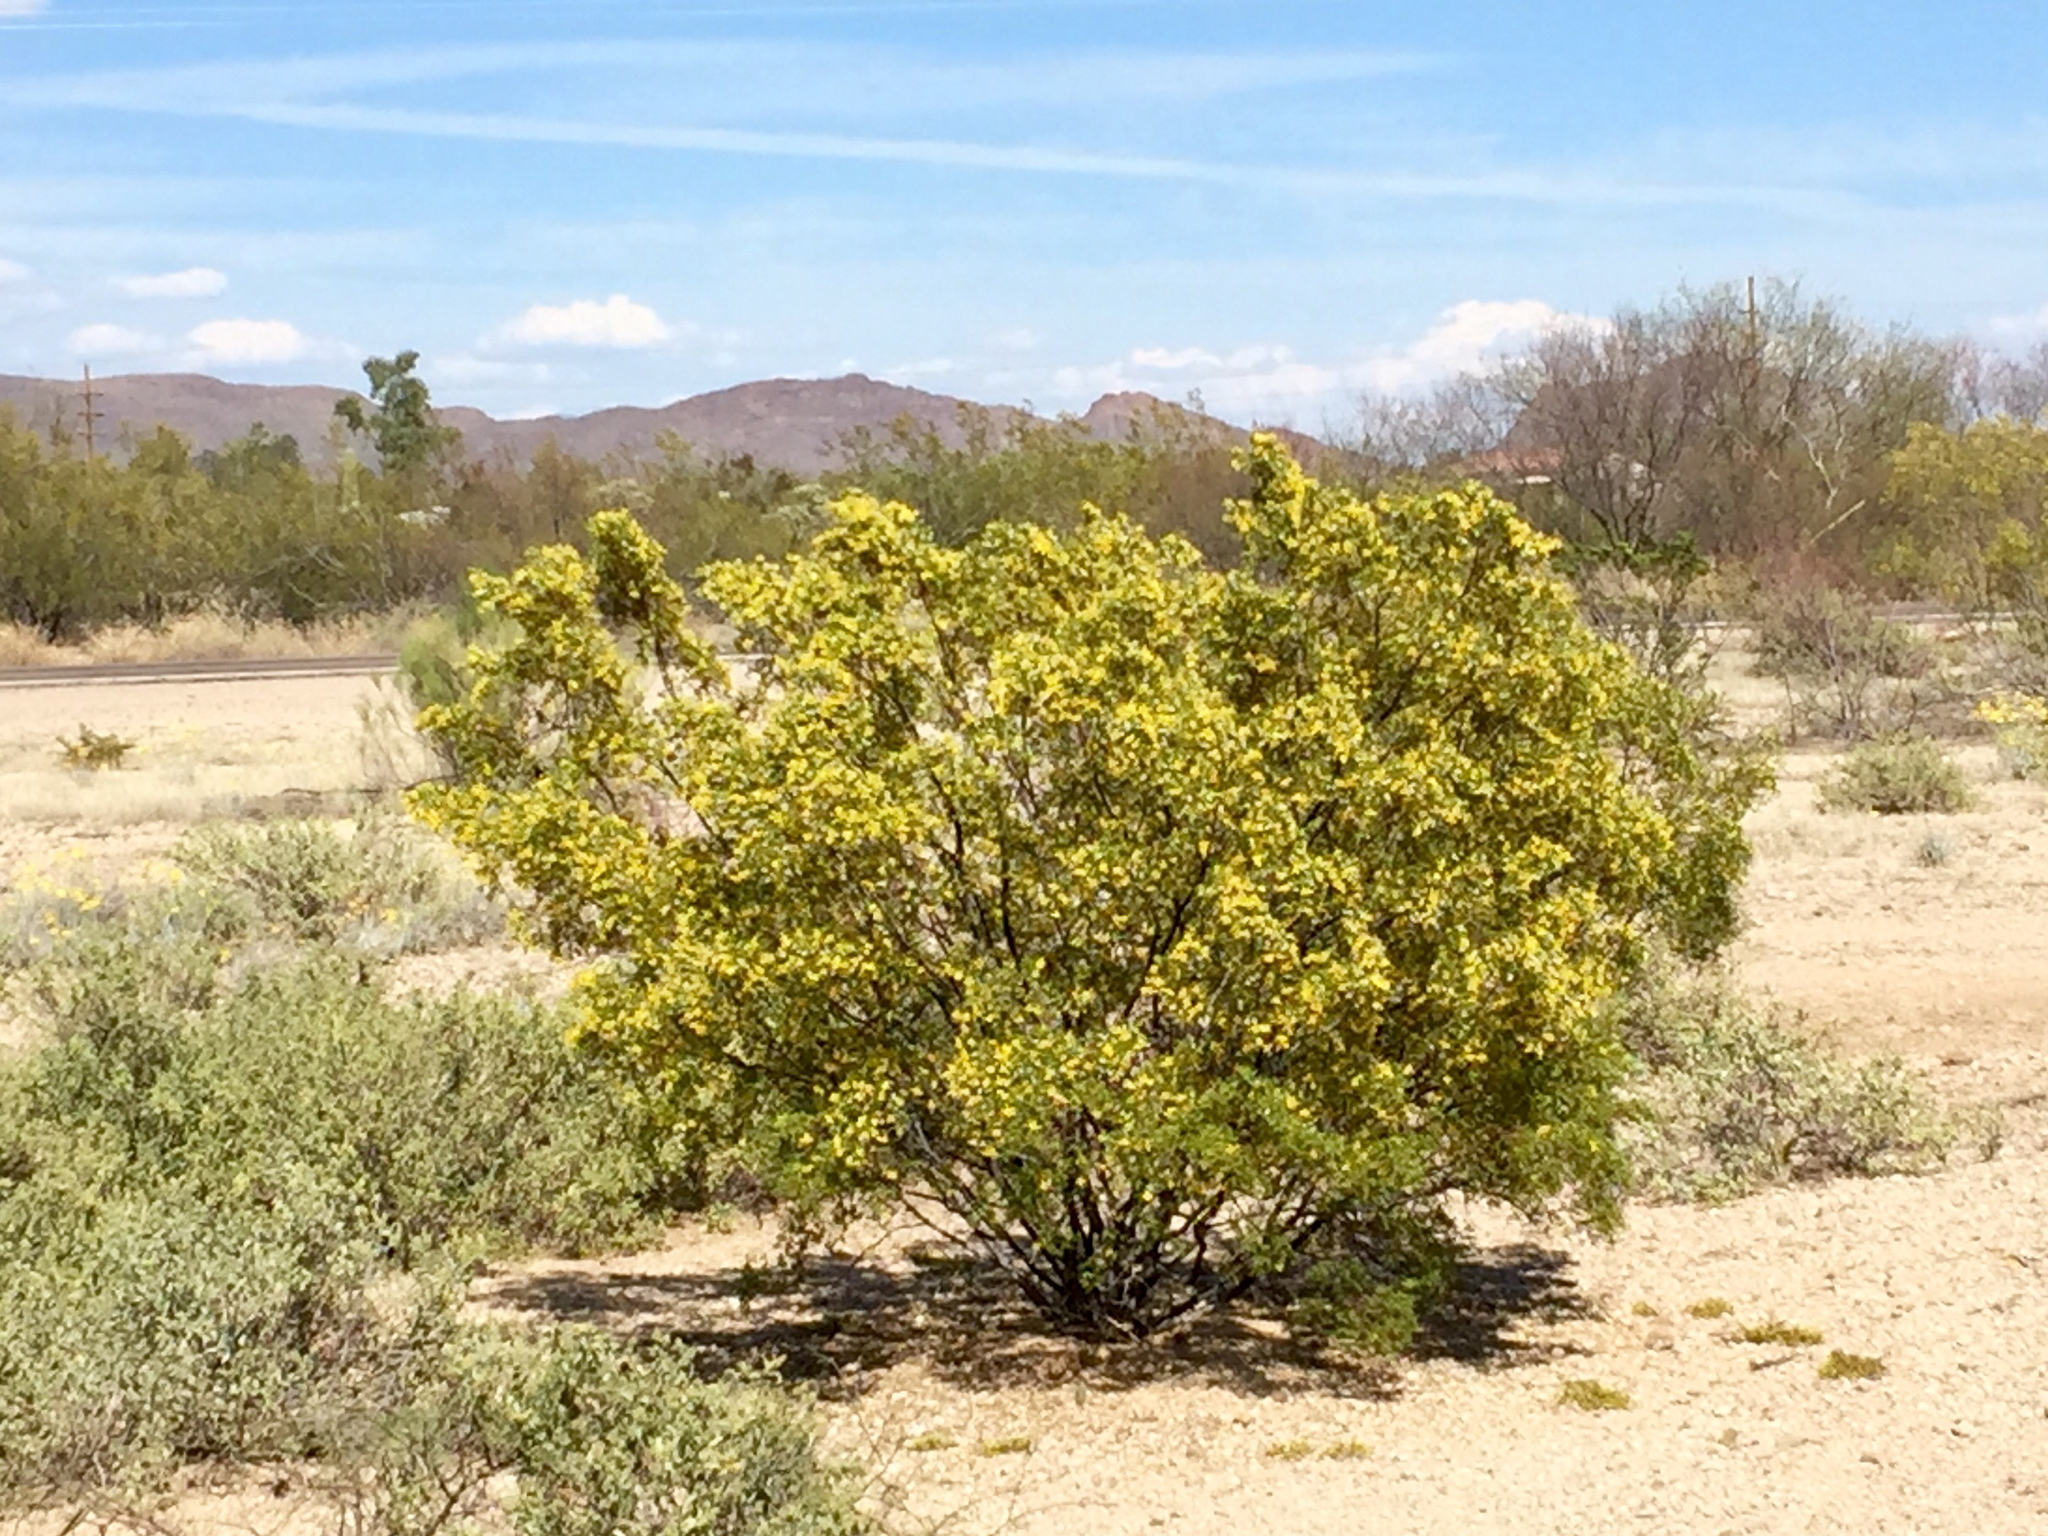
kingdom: Plantae
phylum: Tracheophyta
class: Magnoliopsida
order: Zygophyllales
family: Zygophyllaceae
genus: Larrea
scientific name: Larrea tridentata
